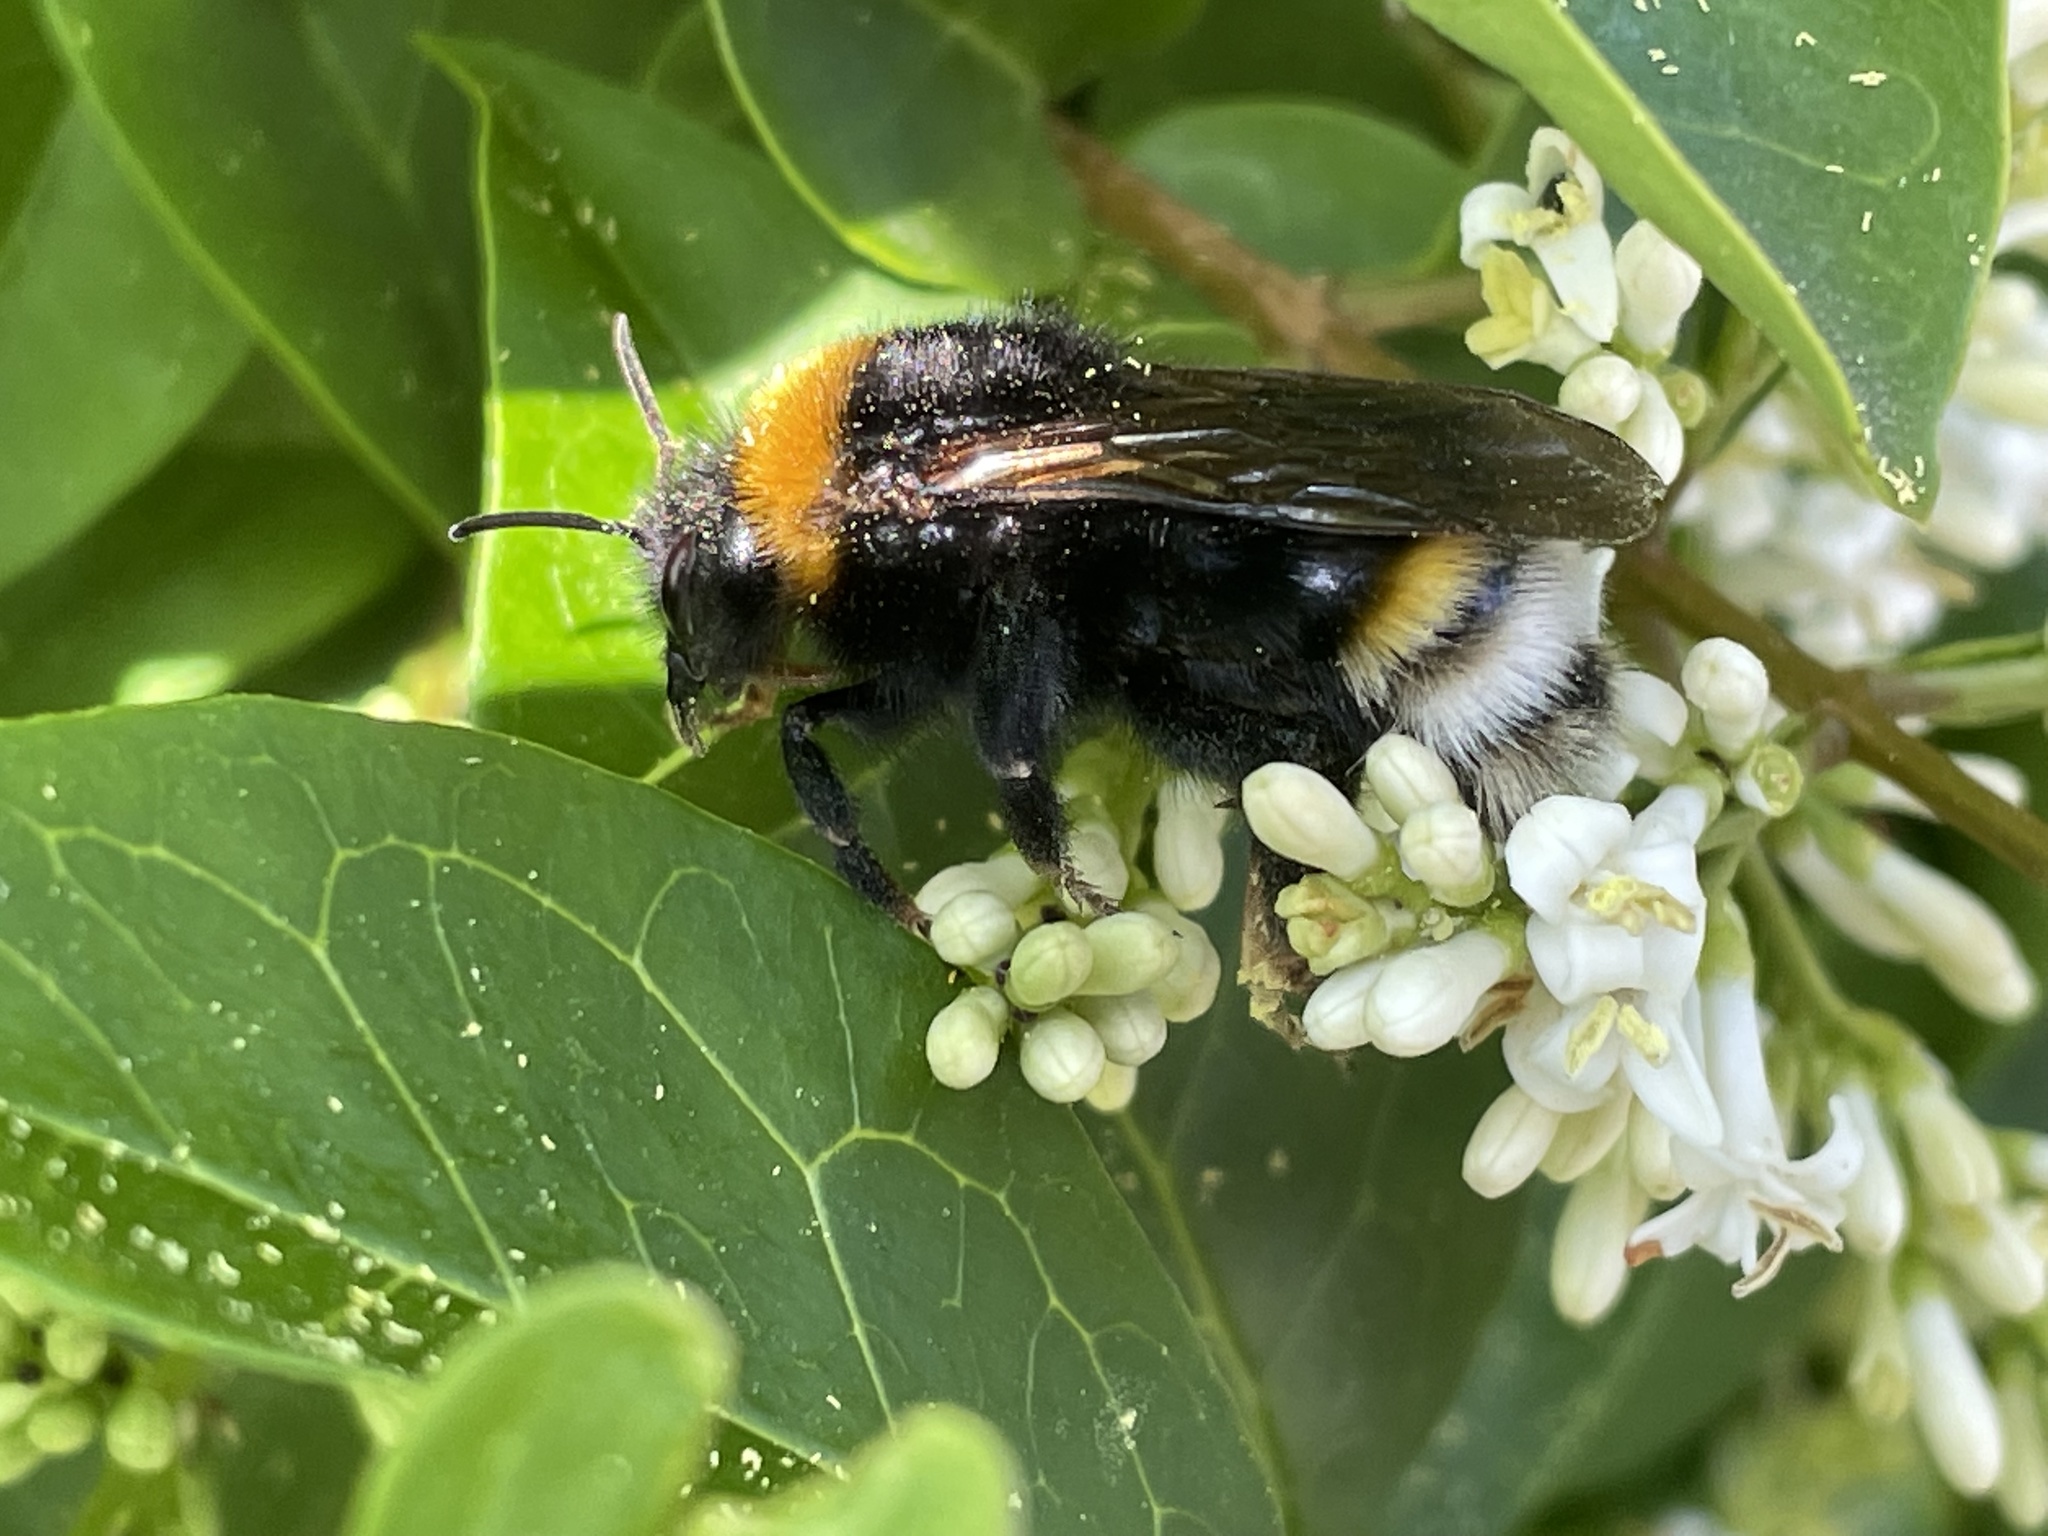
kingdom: Animalia
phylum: Arthropoda
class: Insecta
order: Hymenoptera
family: Apidae
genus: Bombus
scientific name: Bombus vestalis
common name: Vestal cuckoo bee
